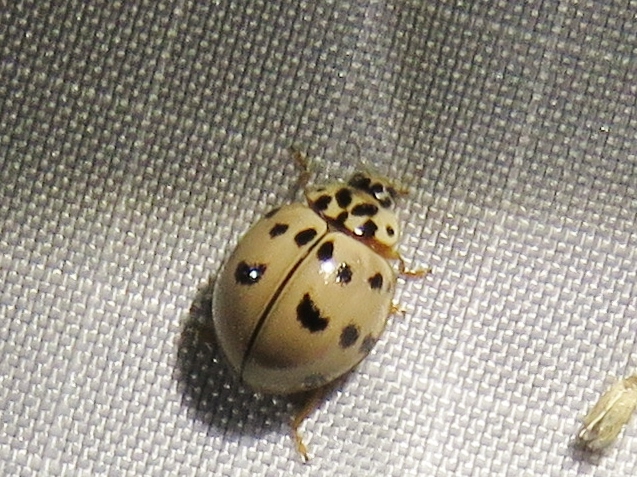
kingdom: Animalia
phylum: Arthropoda
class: Insecta
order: Coleoptera
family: Coccinellidae
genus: Olla
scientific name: Olla v-nigrum
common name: Ashy gray lady beetle
